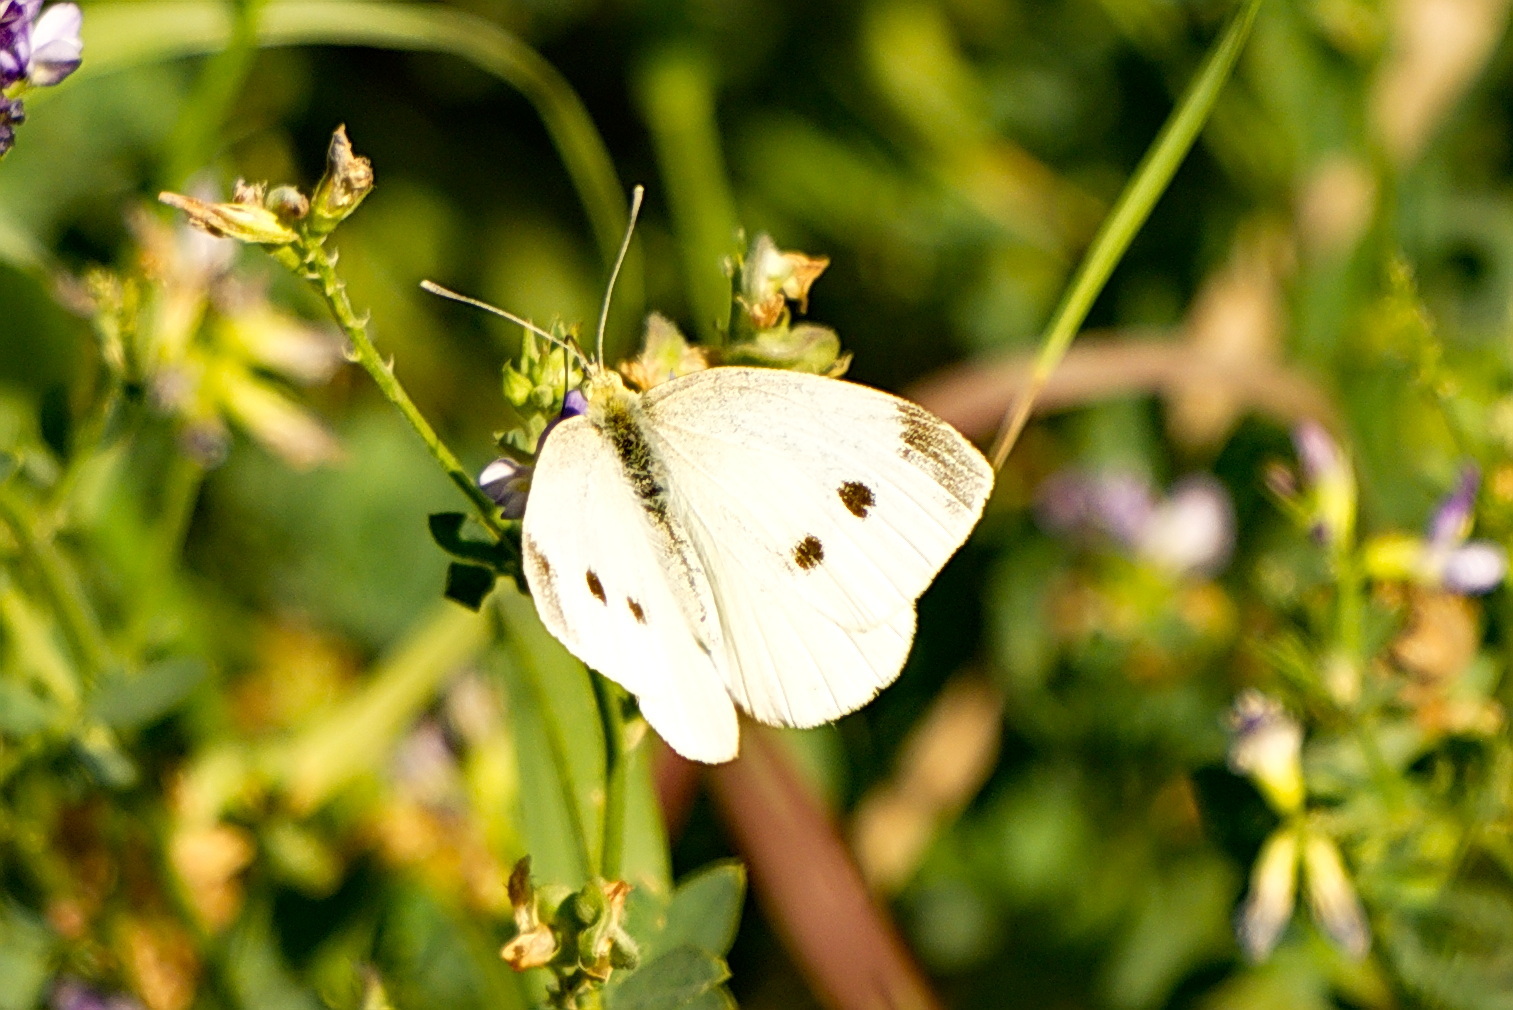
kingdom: Animalia
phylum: Arthropoda
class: Insecta
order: Lepidoptera
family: Pieridae
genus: Pieris
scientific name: Pieris rapae
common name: Small white
